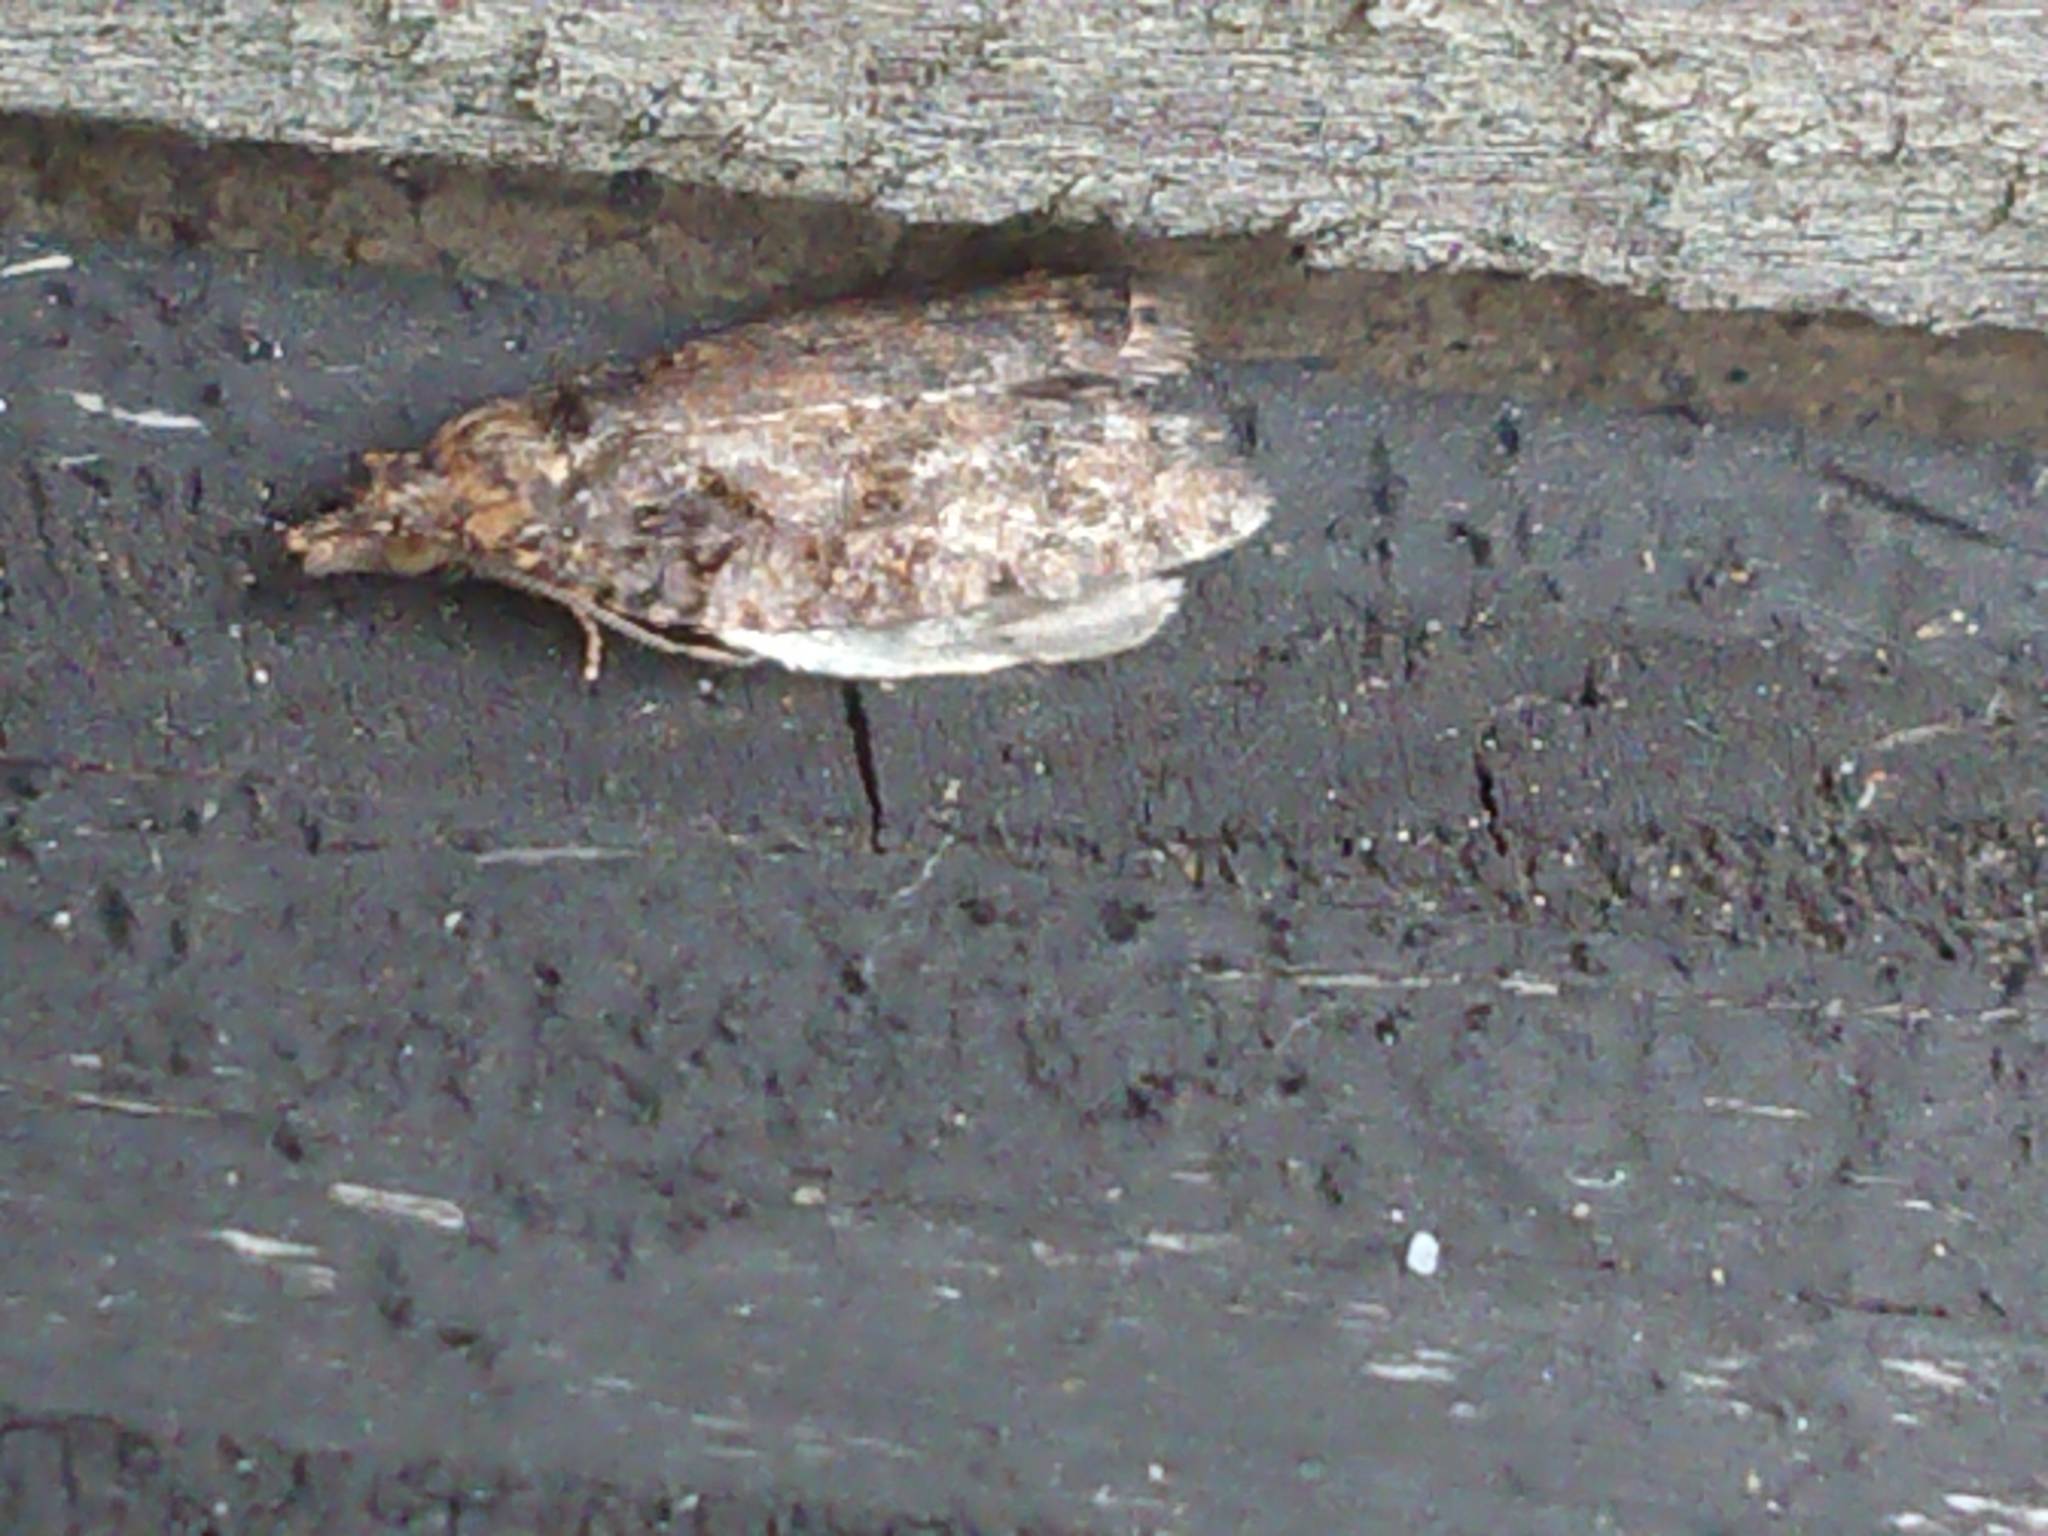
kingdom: Animalia
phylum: Arthropoda
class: Insecta
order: Lepidoptera
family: Tortricidae
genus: Capua
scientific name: Capua intractana
